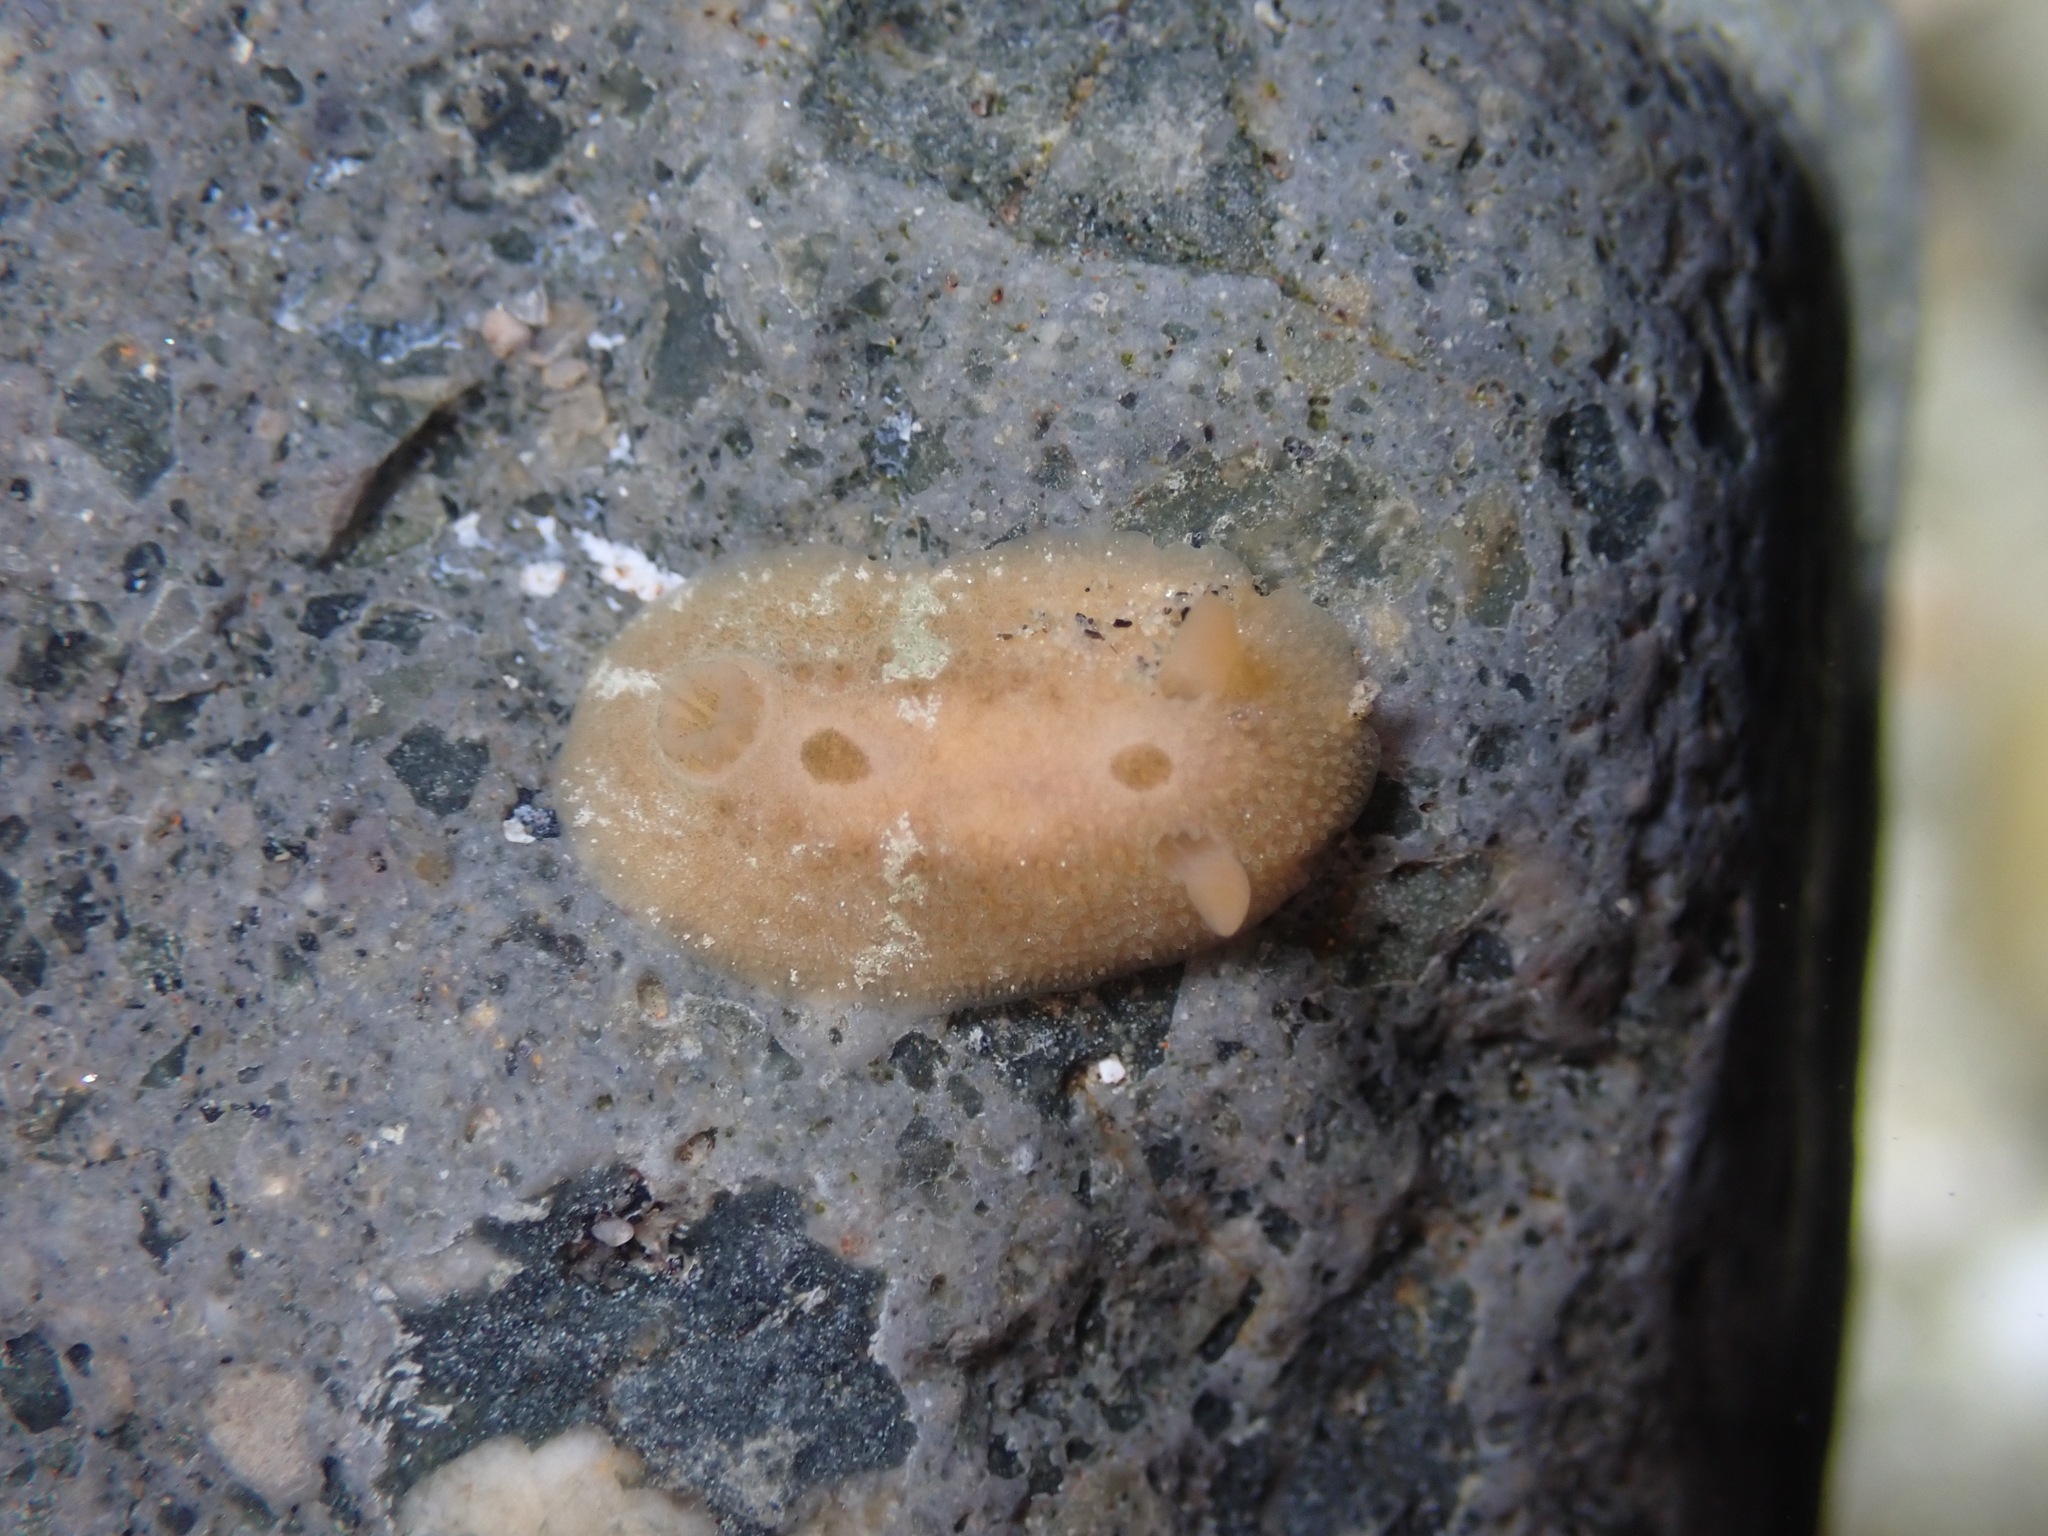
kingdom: Animalia
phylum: Mollusca
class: Gastropoda
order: Nudibranchia
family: Cadlinidae
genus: Aldisa
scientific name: Aldisa sanguinea
